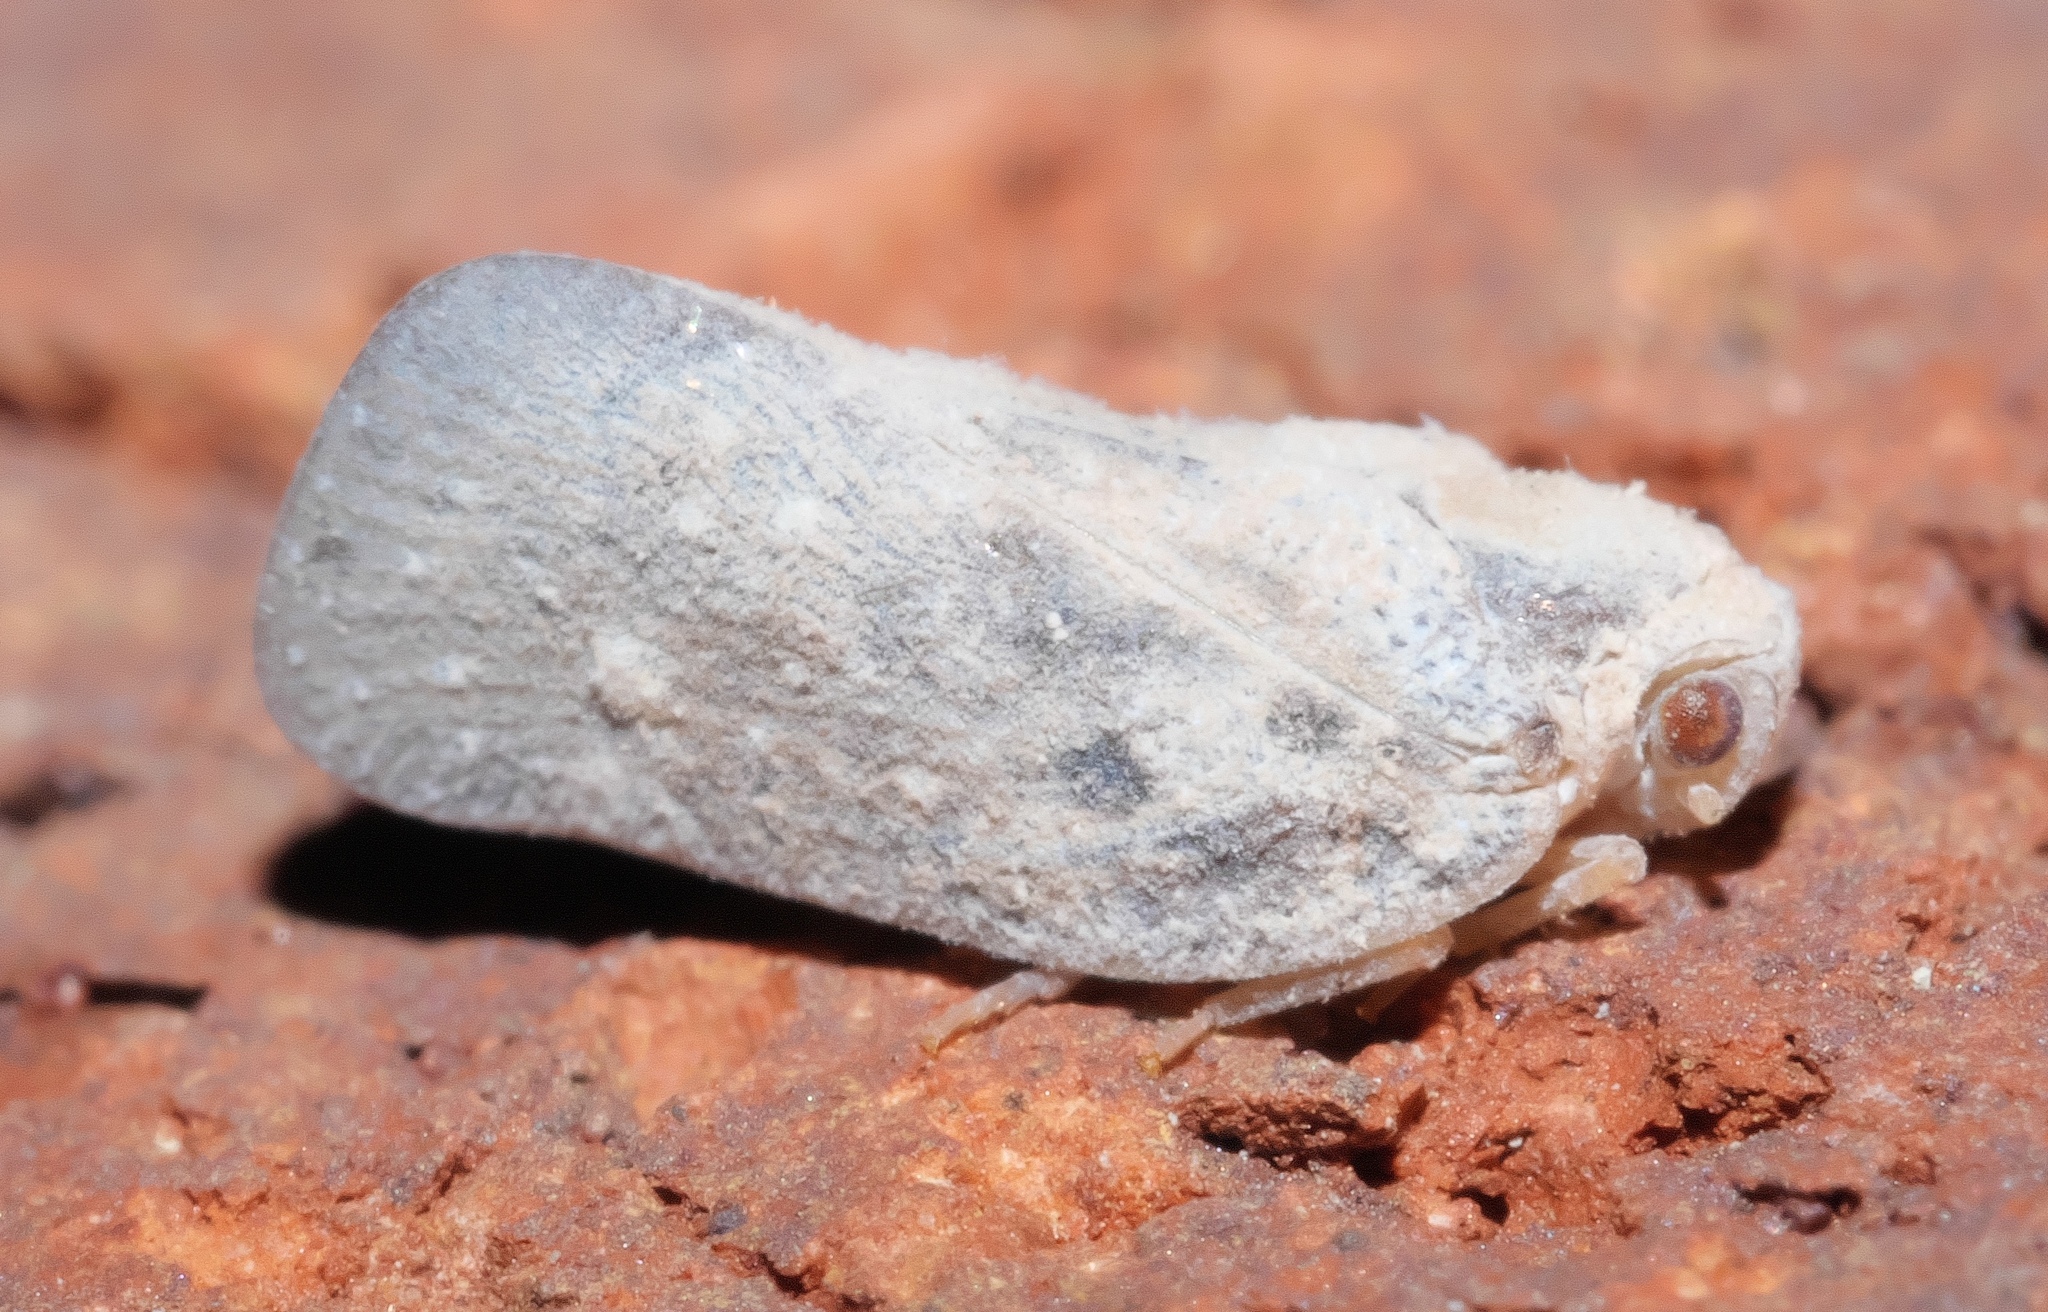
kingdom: Animalia
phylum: Arthropoda
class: Insecta
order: Hemiptera
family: Flatidae
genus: Metcalfa
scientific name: Metcalfa pruinosa
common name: Citrus flatid planthopper
